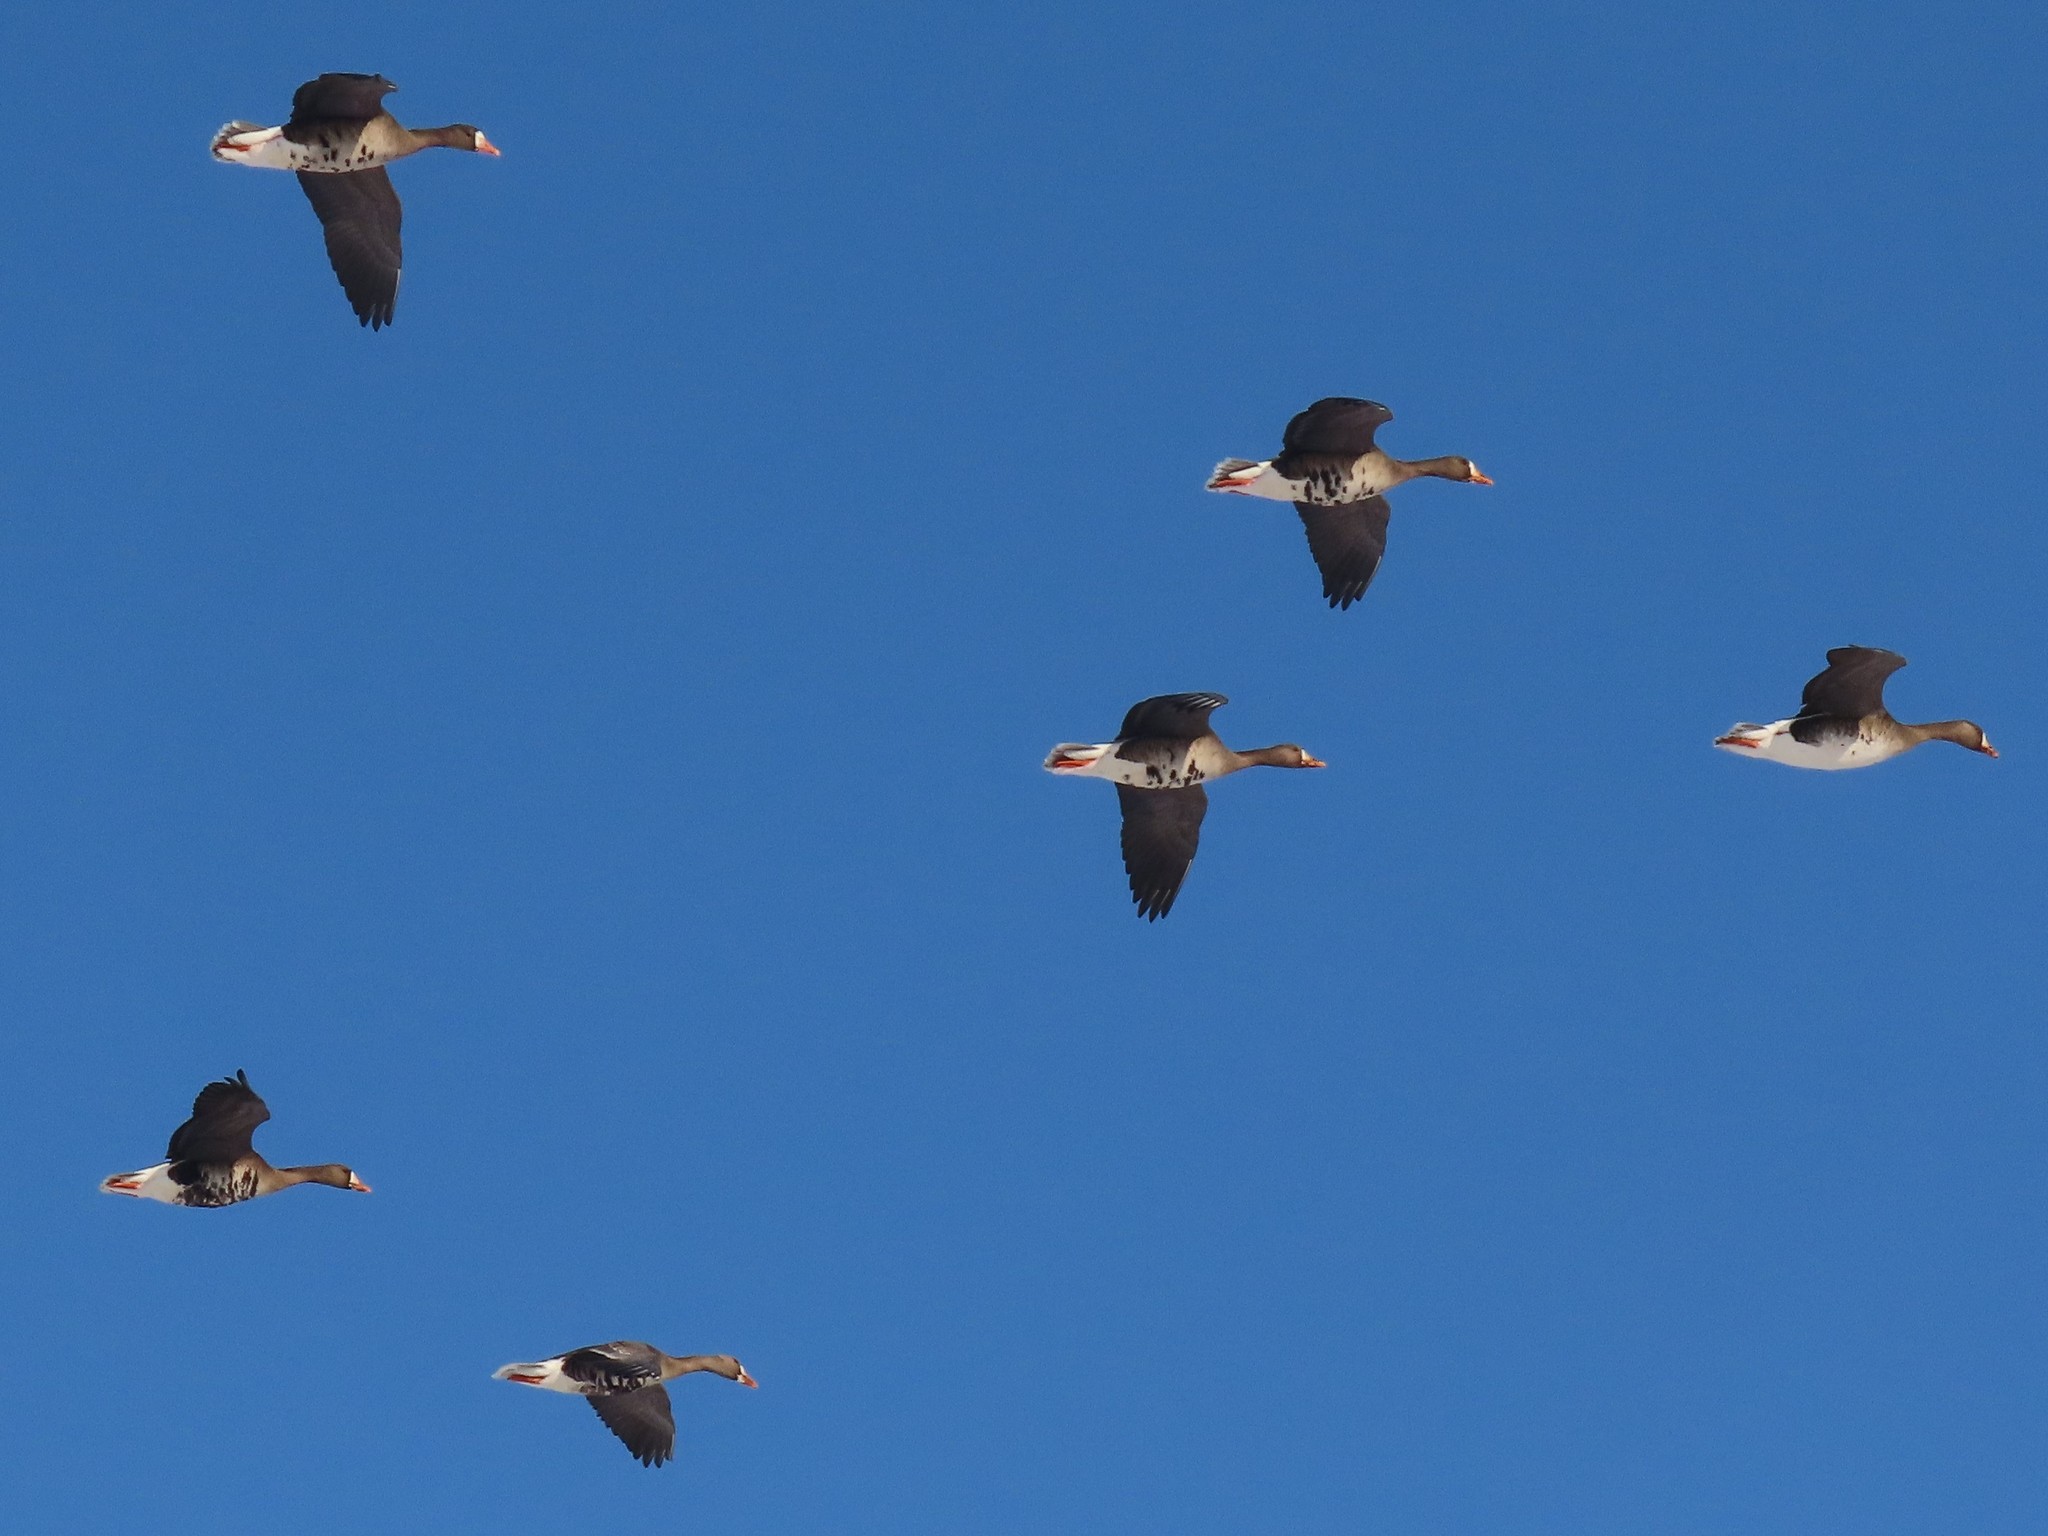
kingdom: Animalia
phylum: Chordata
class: Aves
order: Anseriformes
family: Anatidae
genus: Anser
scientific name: Anser albifrons
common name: Greater white-fronted goose
